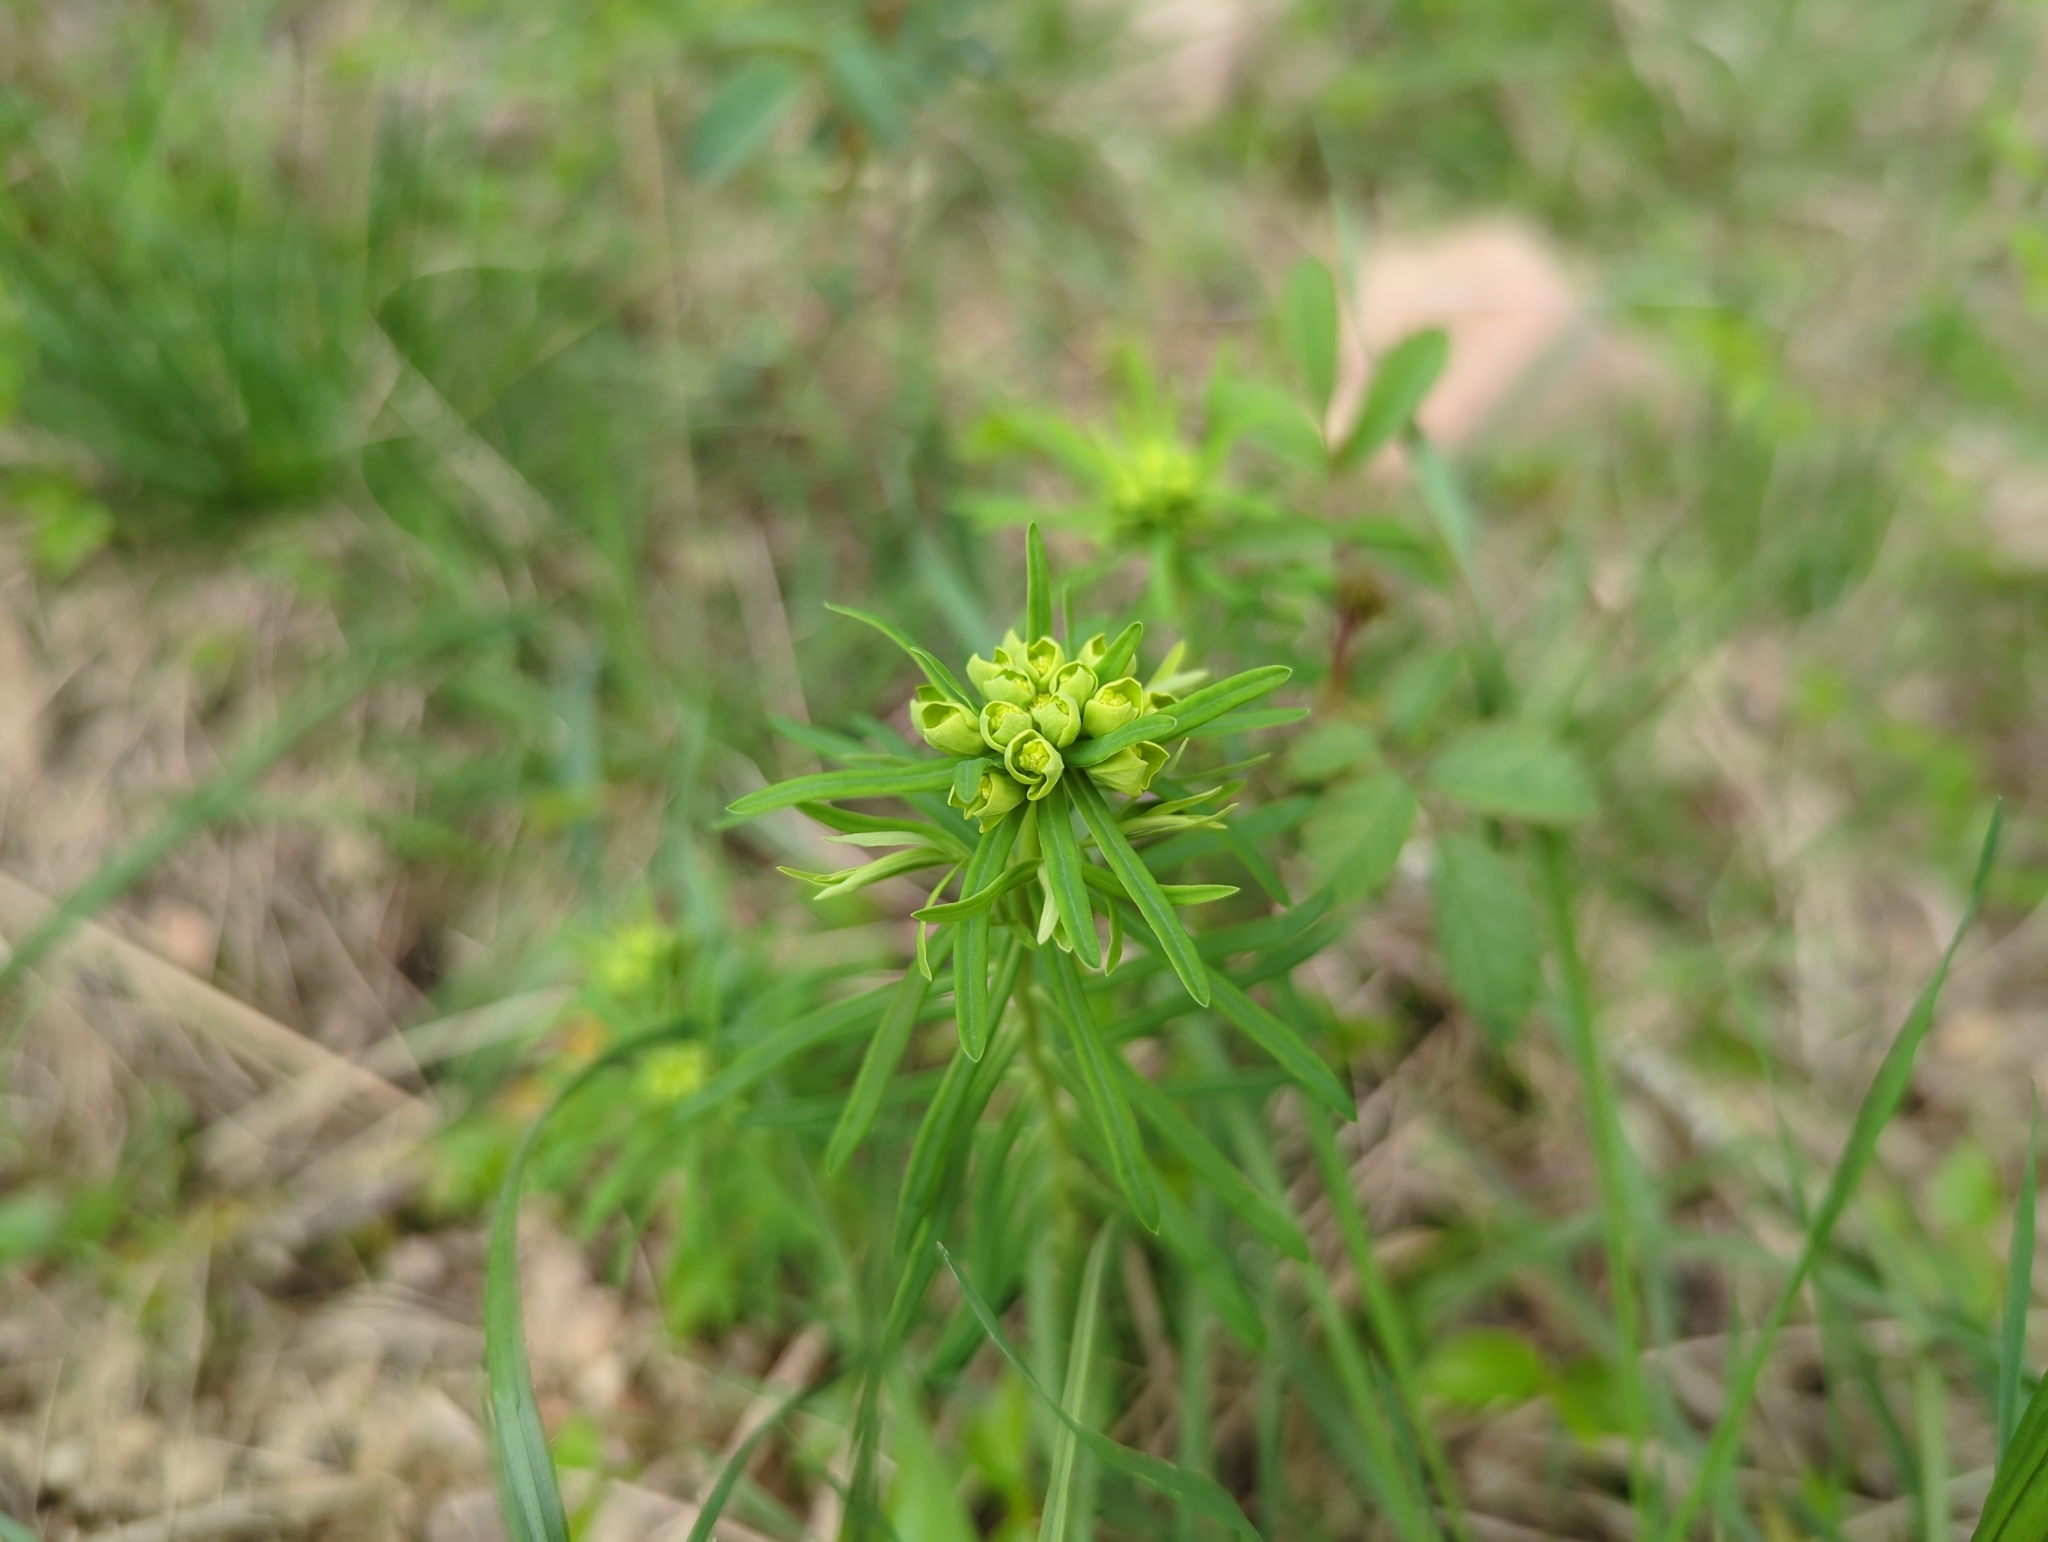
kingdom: Plantae
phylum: Tracheophyta
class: Magnoliopsida
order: Malpighiales
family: Euphorbiaceae
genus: Euphorbia
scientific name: Euphorbia cyparissias
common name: Cypress spurge
